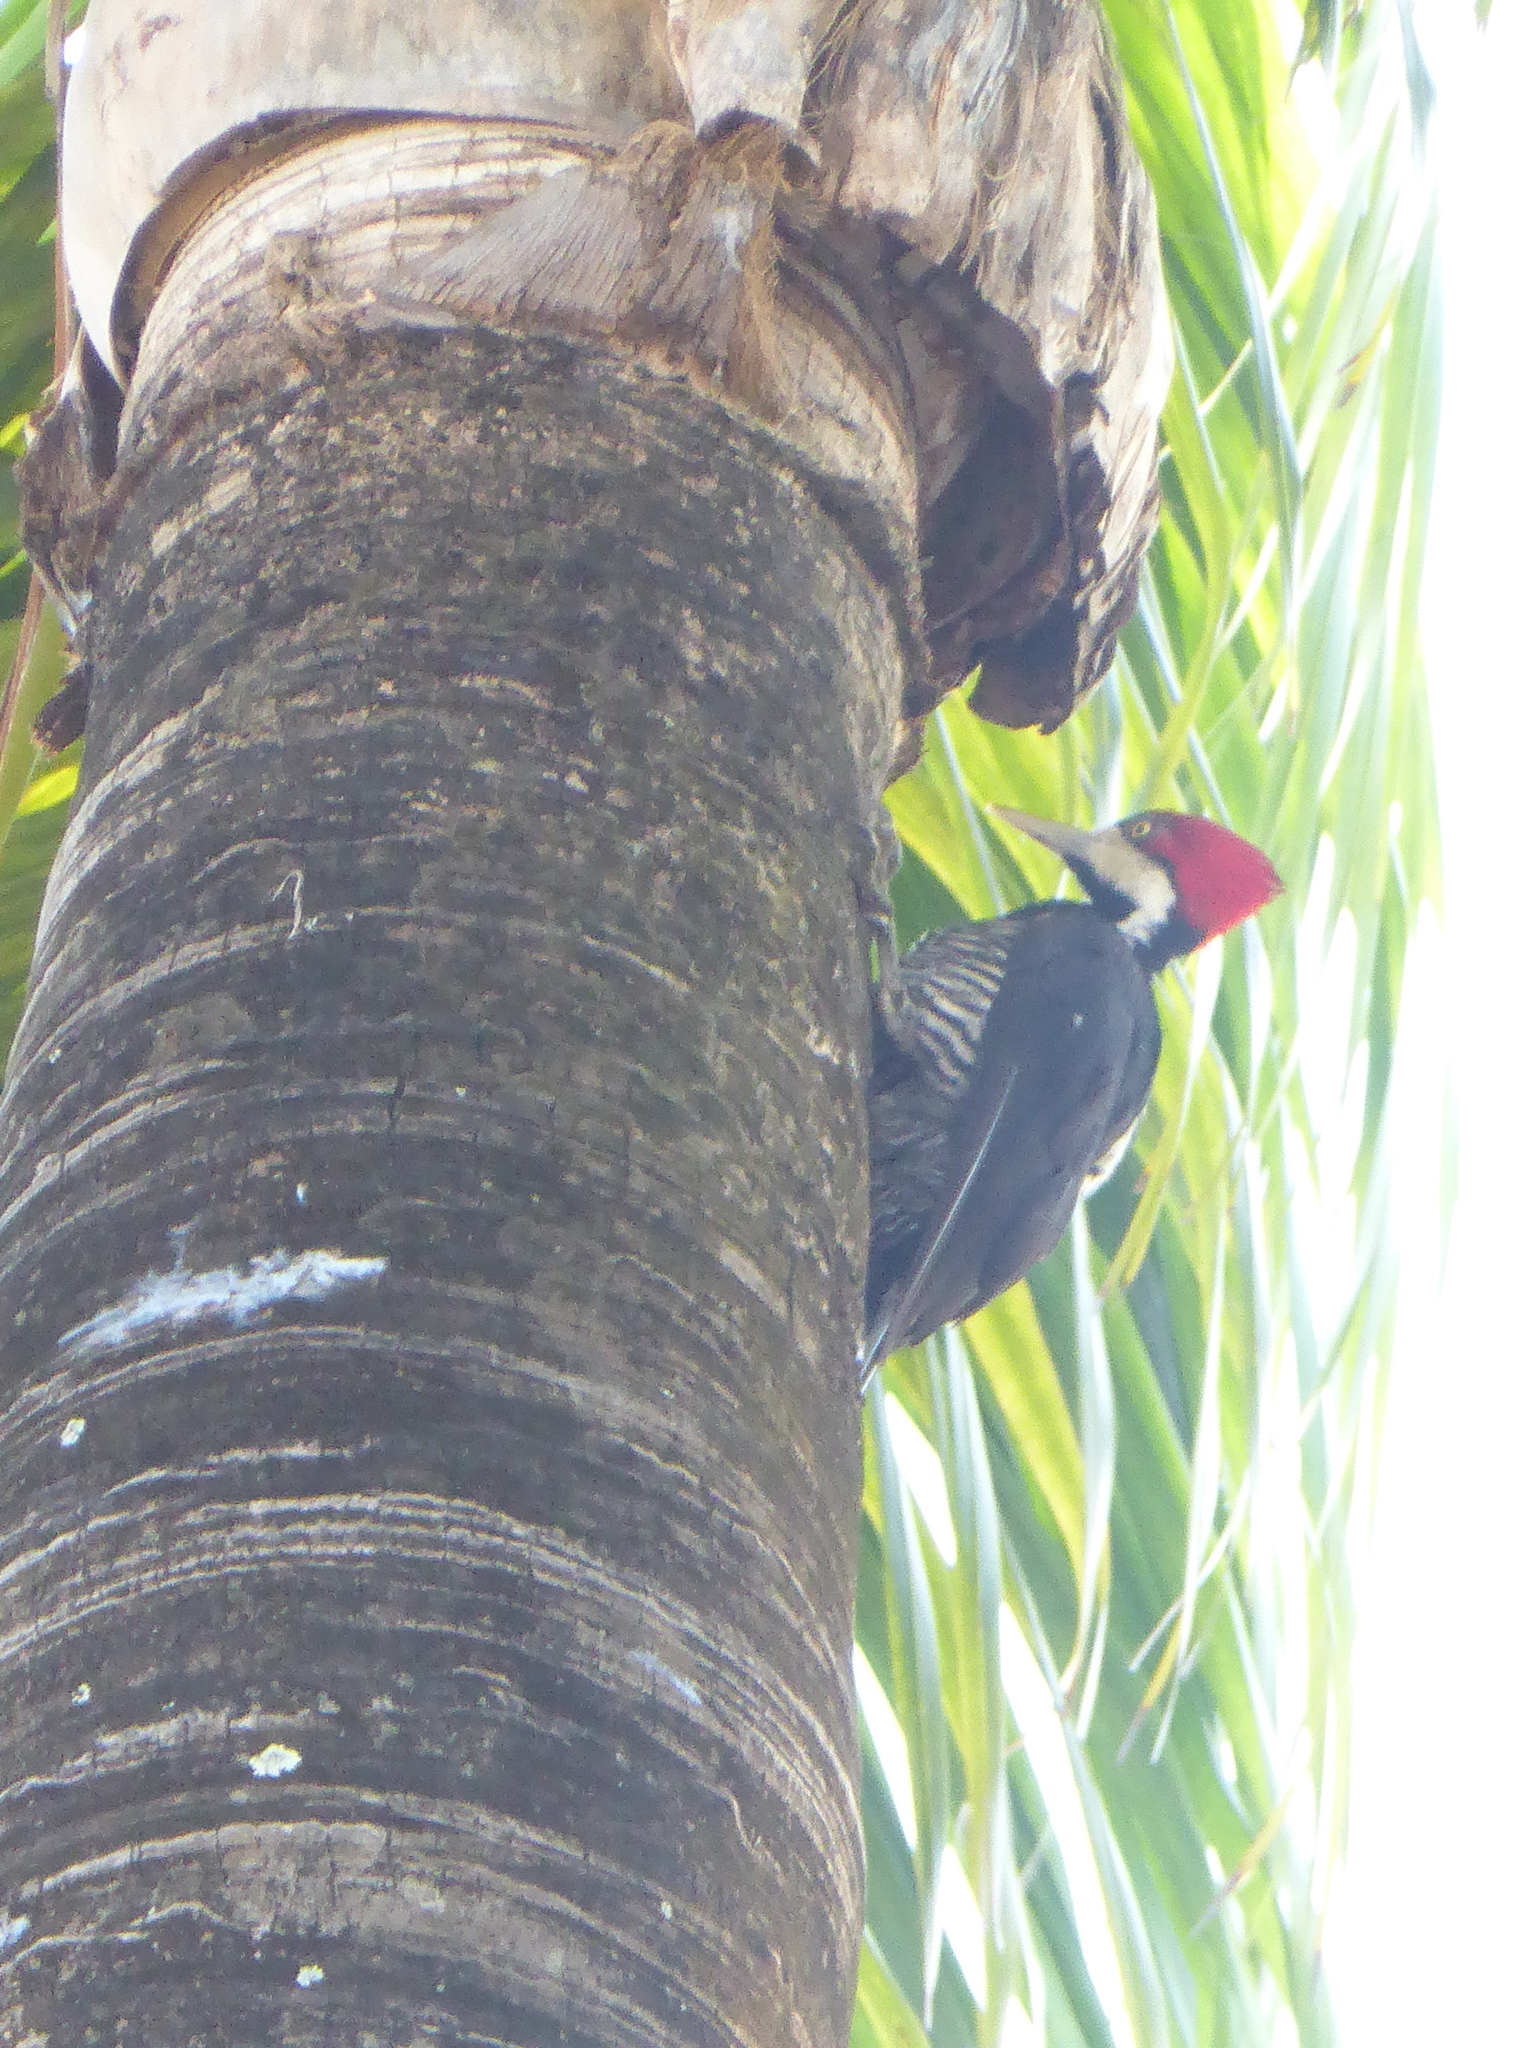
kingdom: Animalia
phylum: Chordata
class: Aves
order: Piciformes
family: Picidae
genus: Campephilus
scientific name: Campephilus melanoleucos
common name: Crimson-crested woodpecker
